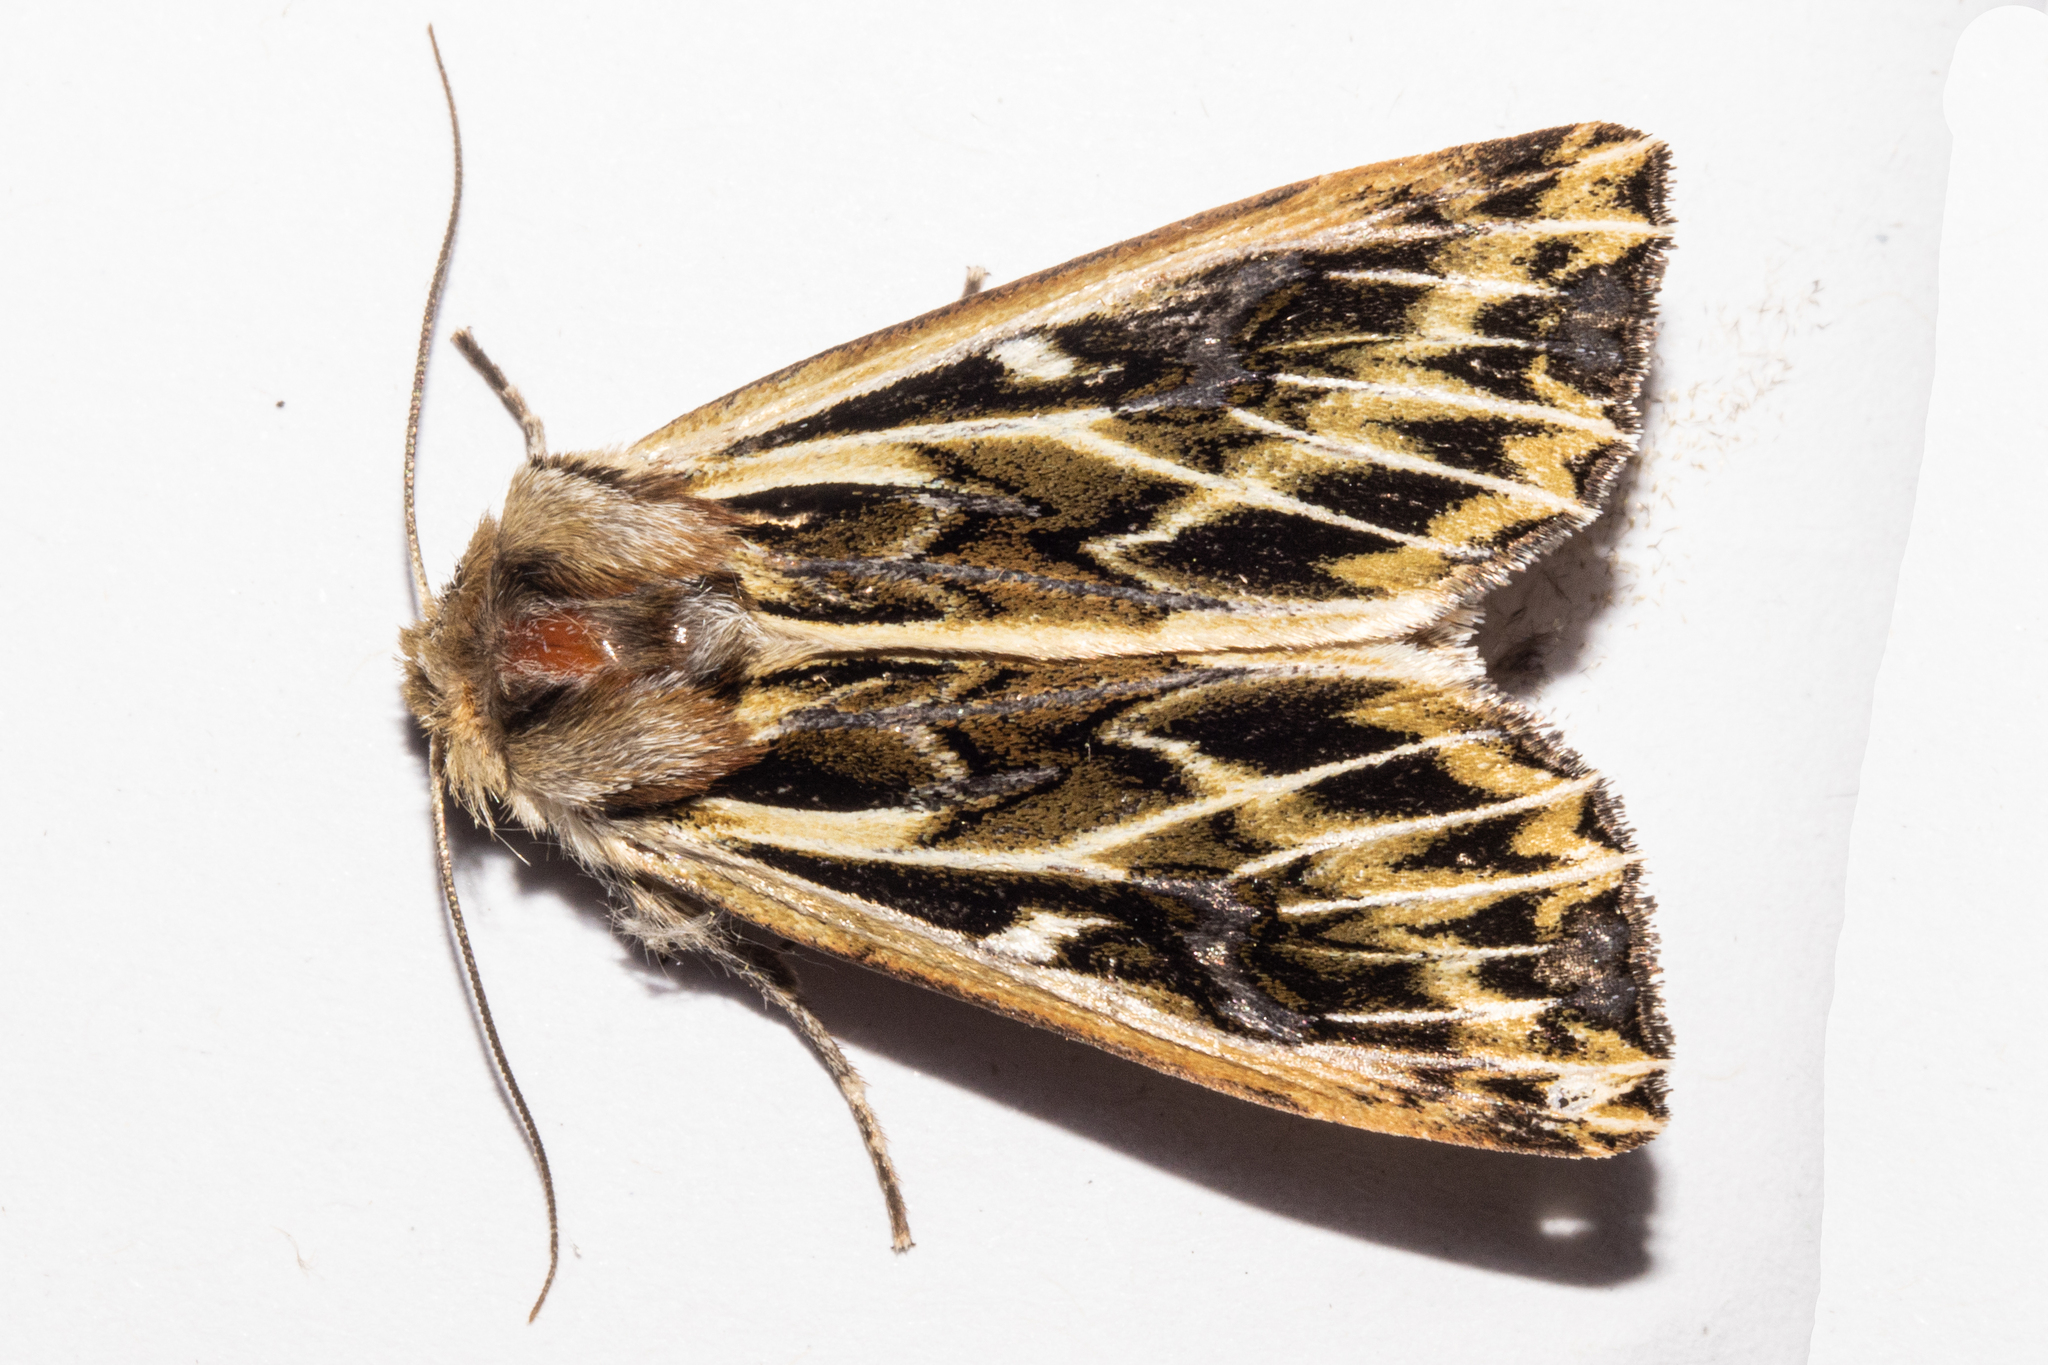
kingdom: Animalia
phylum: Arthropoda
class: Insecta
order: Lepidoptera
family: Noctuidae
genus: Ichneutica
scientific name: Ichneutica
